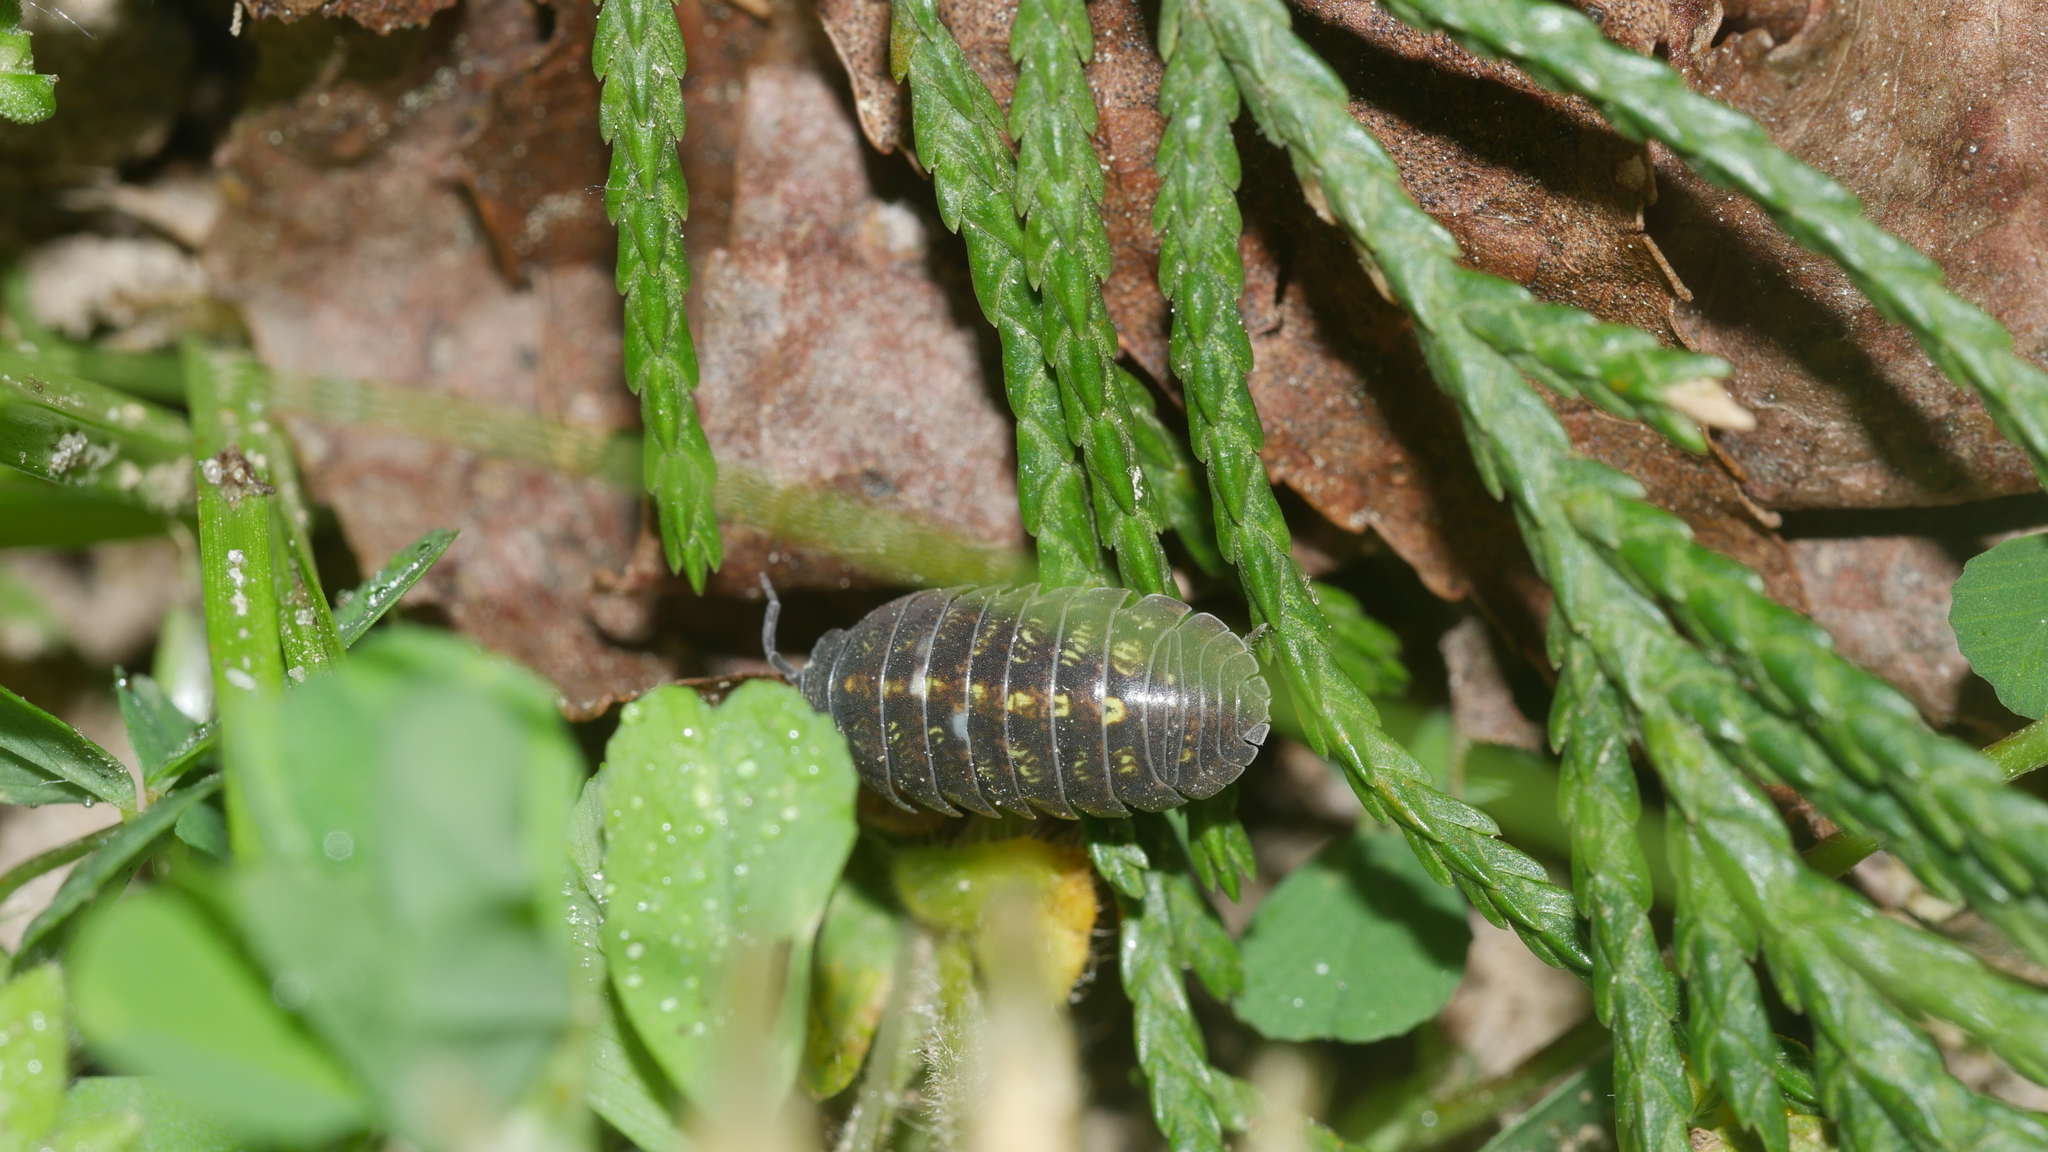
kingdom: Animalia
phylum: Arthropoda
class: Malacostraca
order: Isopoda
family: Armadillidiidae
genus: Armadillidium
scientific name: Armadillidium vulgare
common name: Common pill woodlouse
